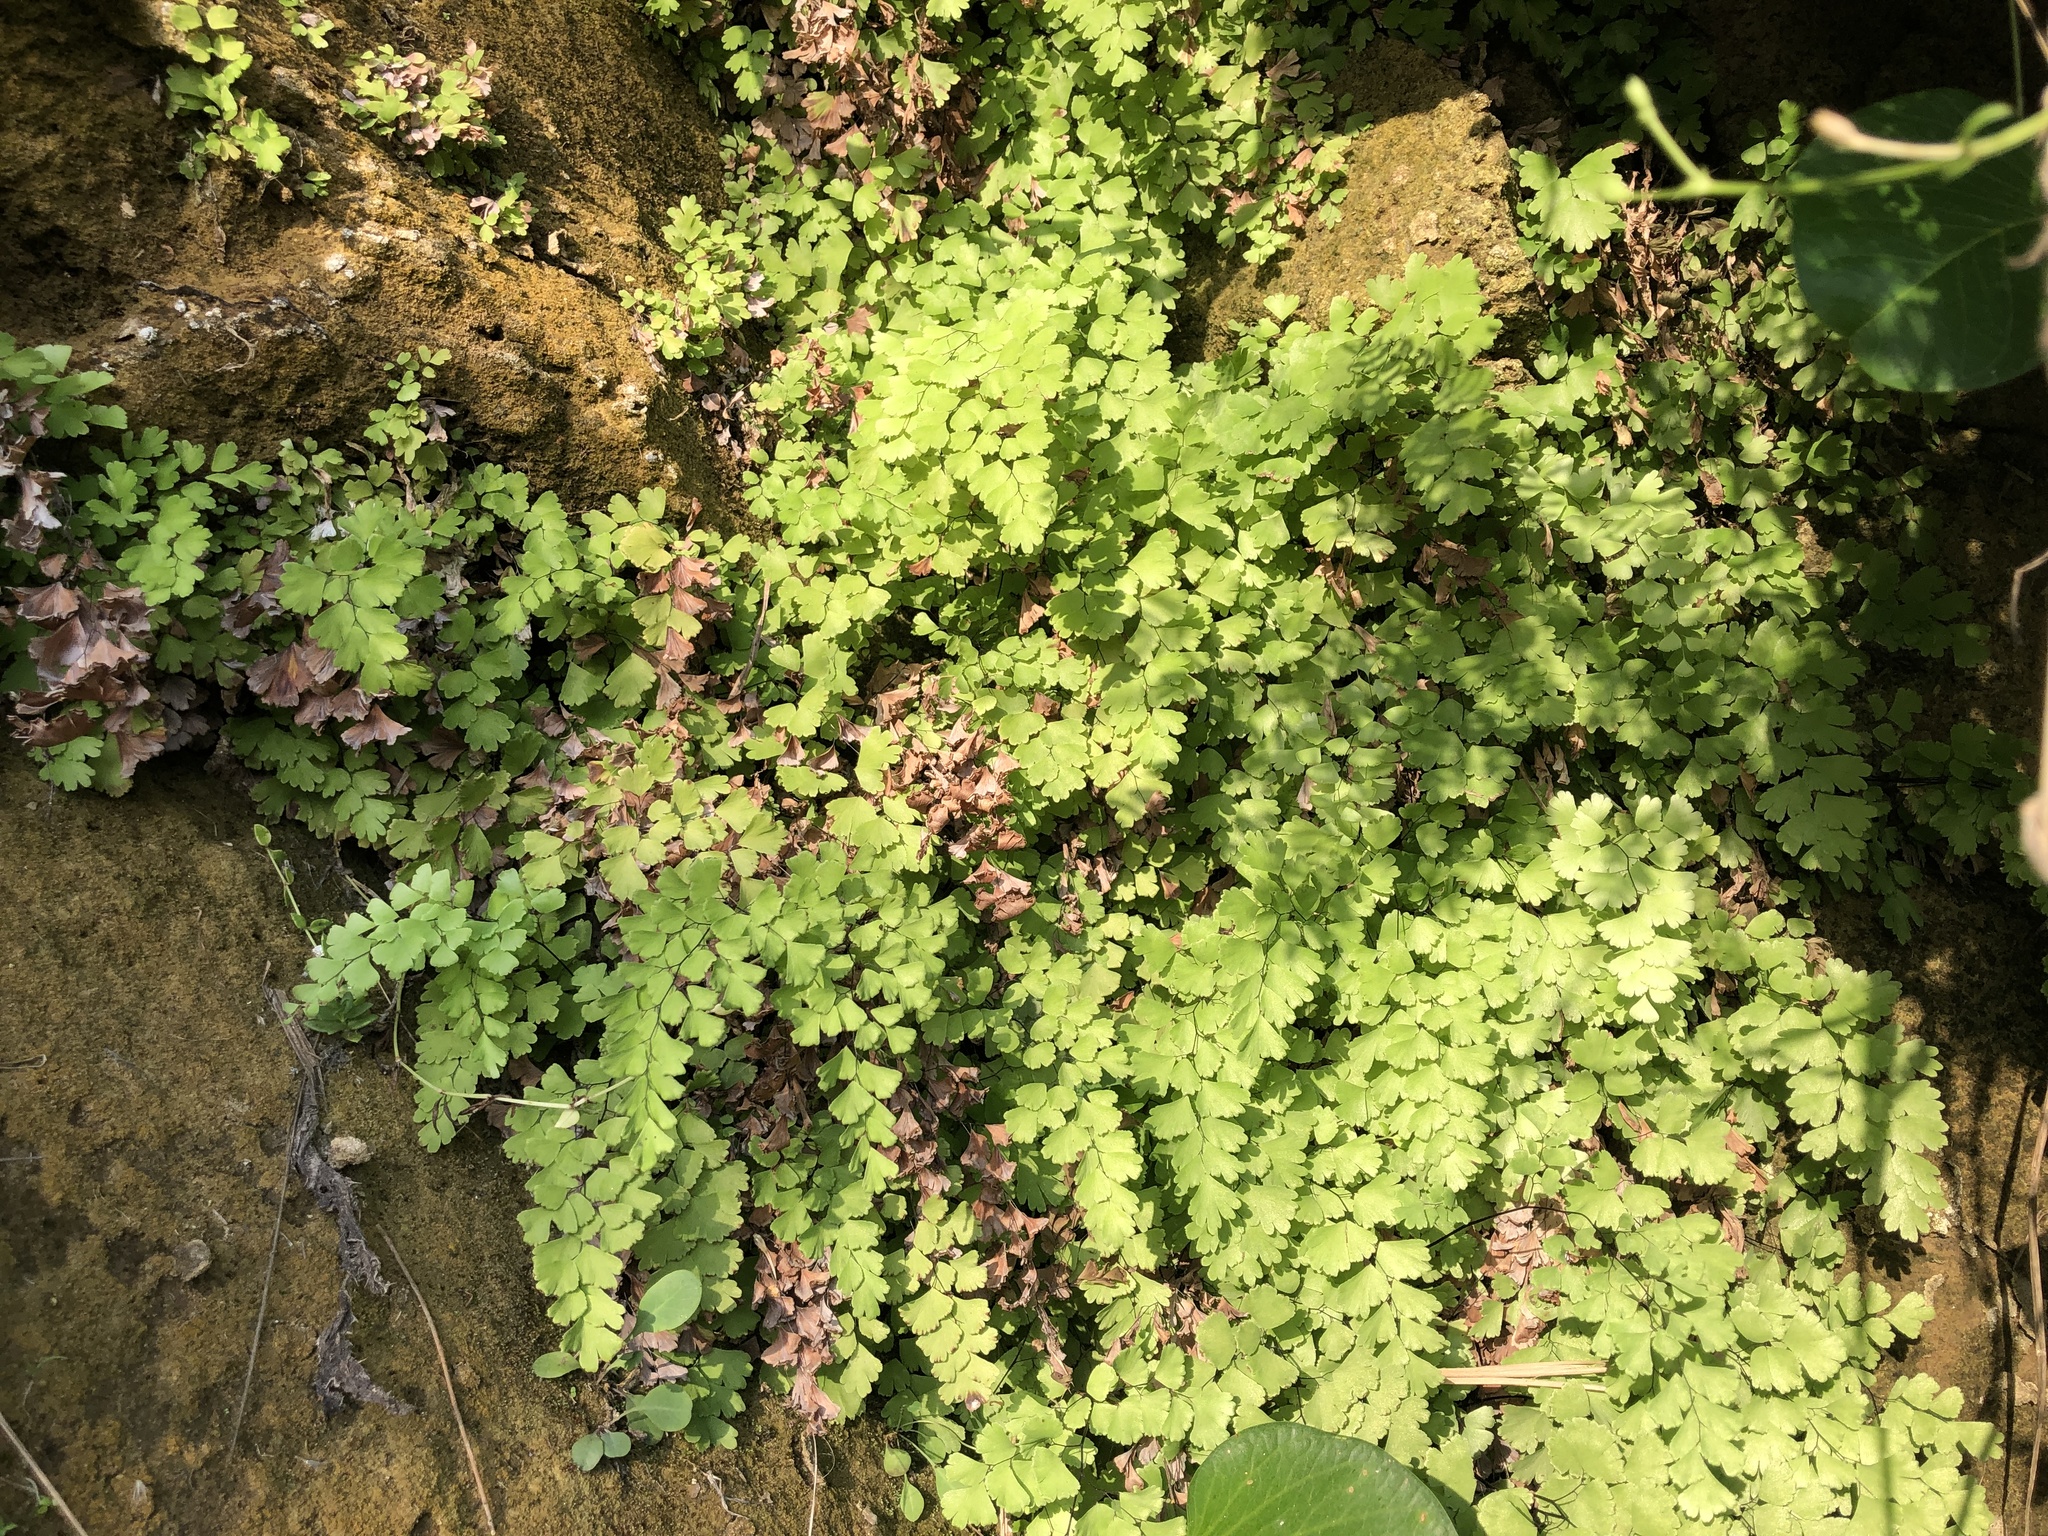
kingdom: Plantae
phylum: Tracheophyta
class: Polypodiopsida
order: Polypodiales
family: Pteridaceae
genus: Adiantum
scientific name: Adiantum capillus-veneris
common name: Maidenhair fern
